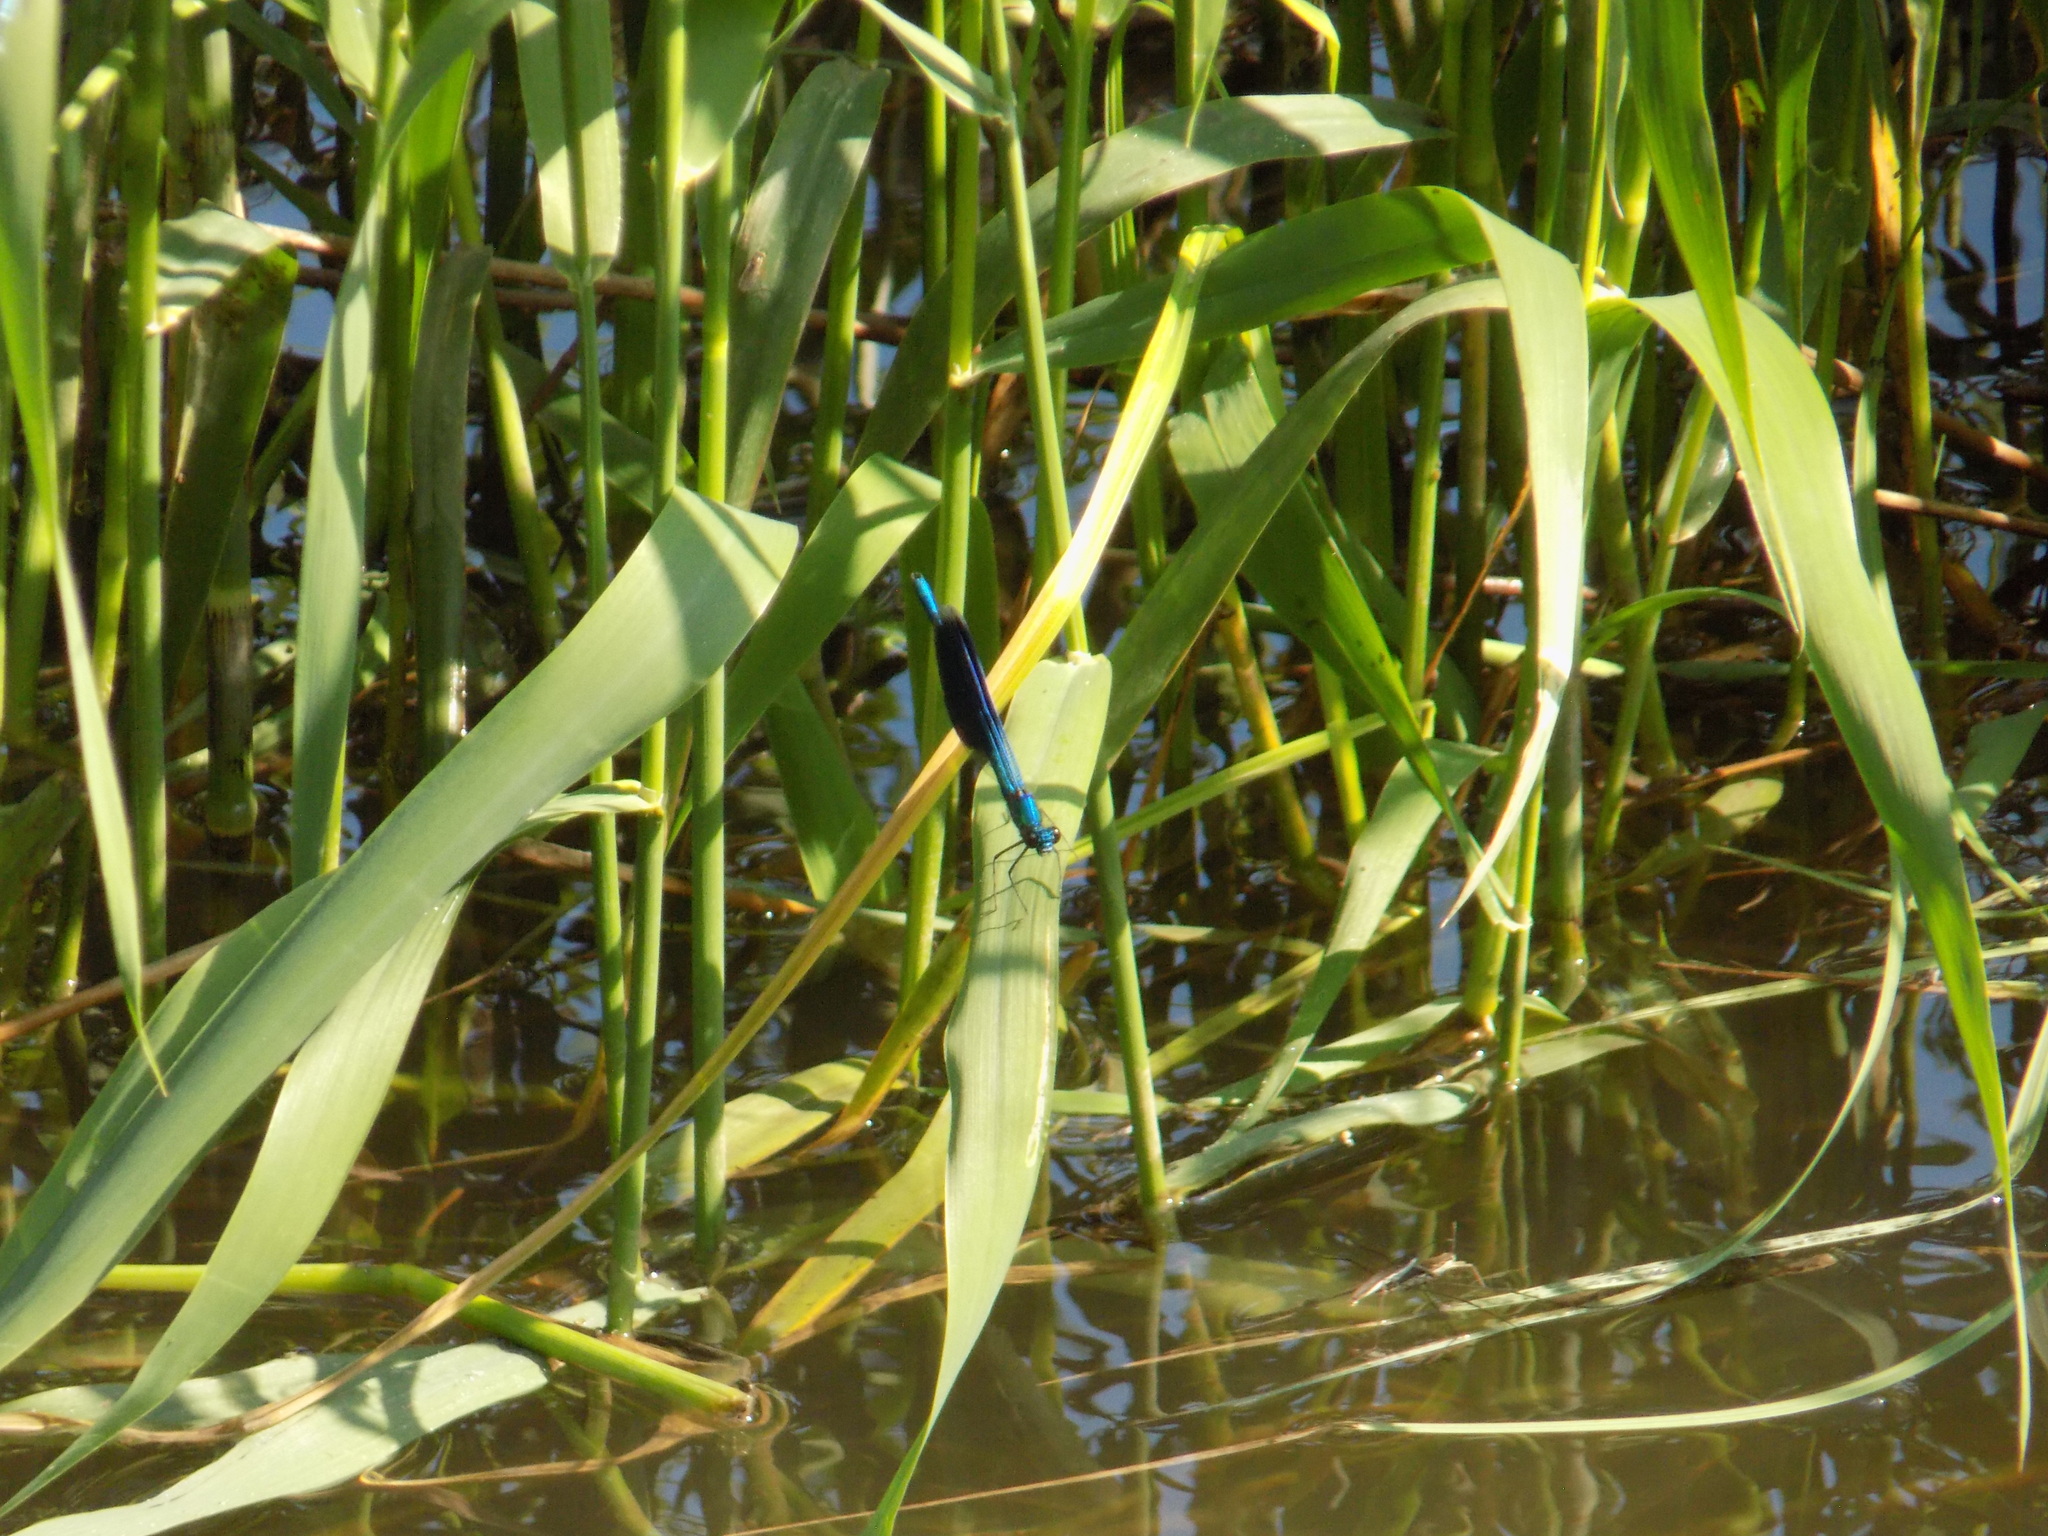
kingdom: Animalia
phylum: Arthropoda
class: Insecta
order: Odonata
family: Calopterygidae
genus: Calopteryx
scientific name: Calopteryx splendens
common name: Banded demoiselle
